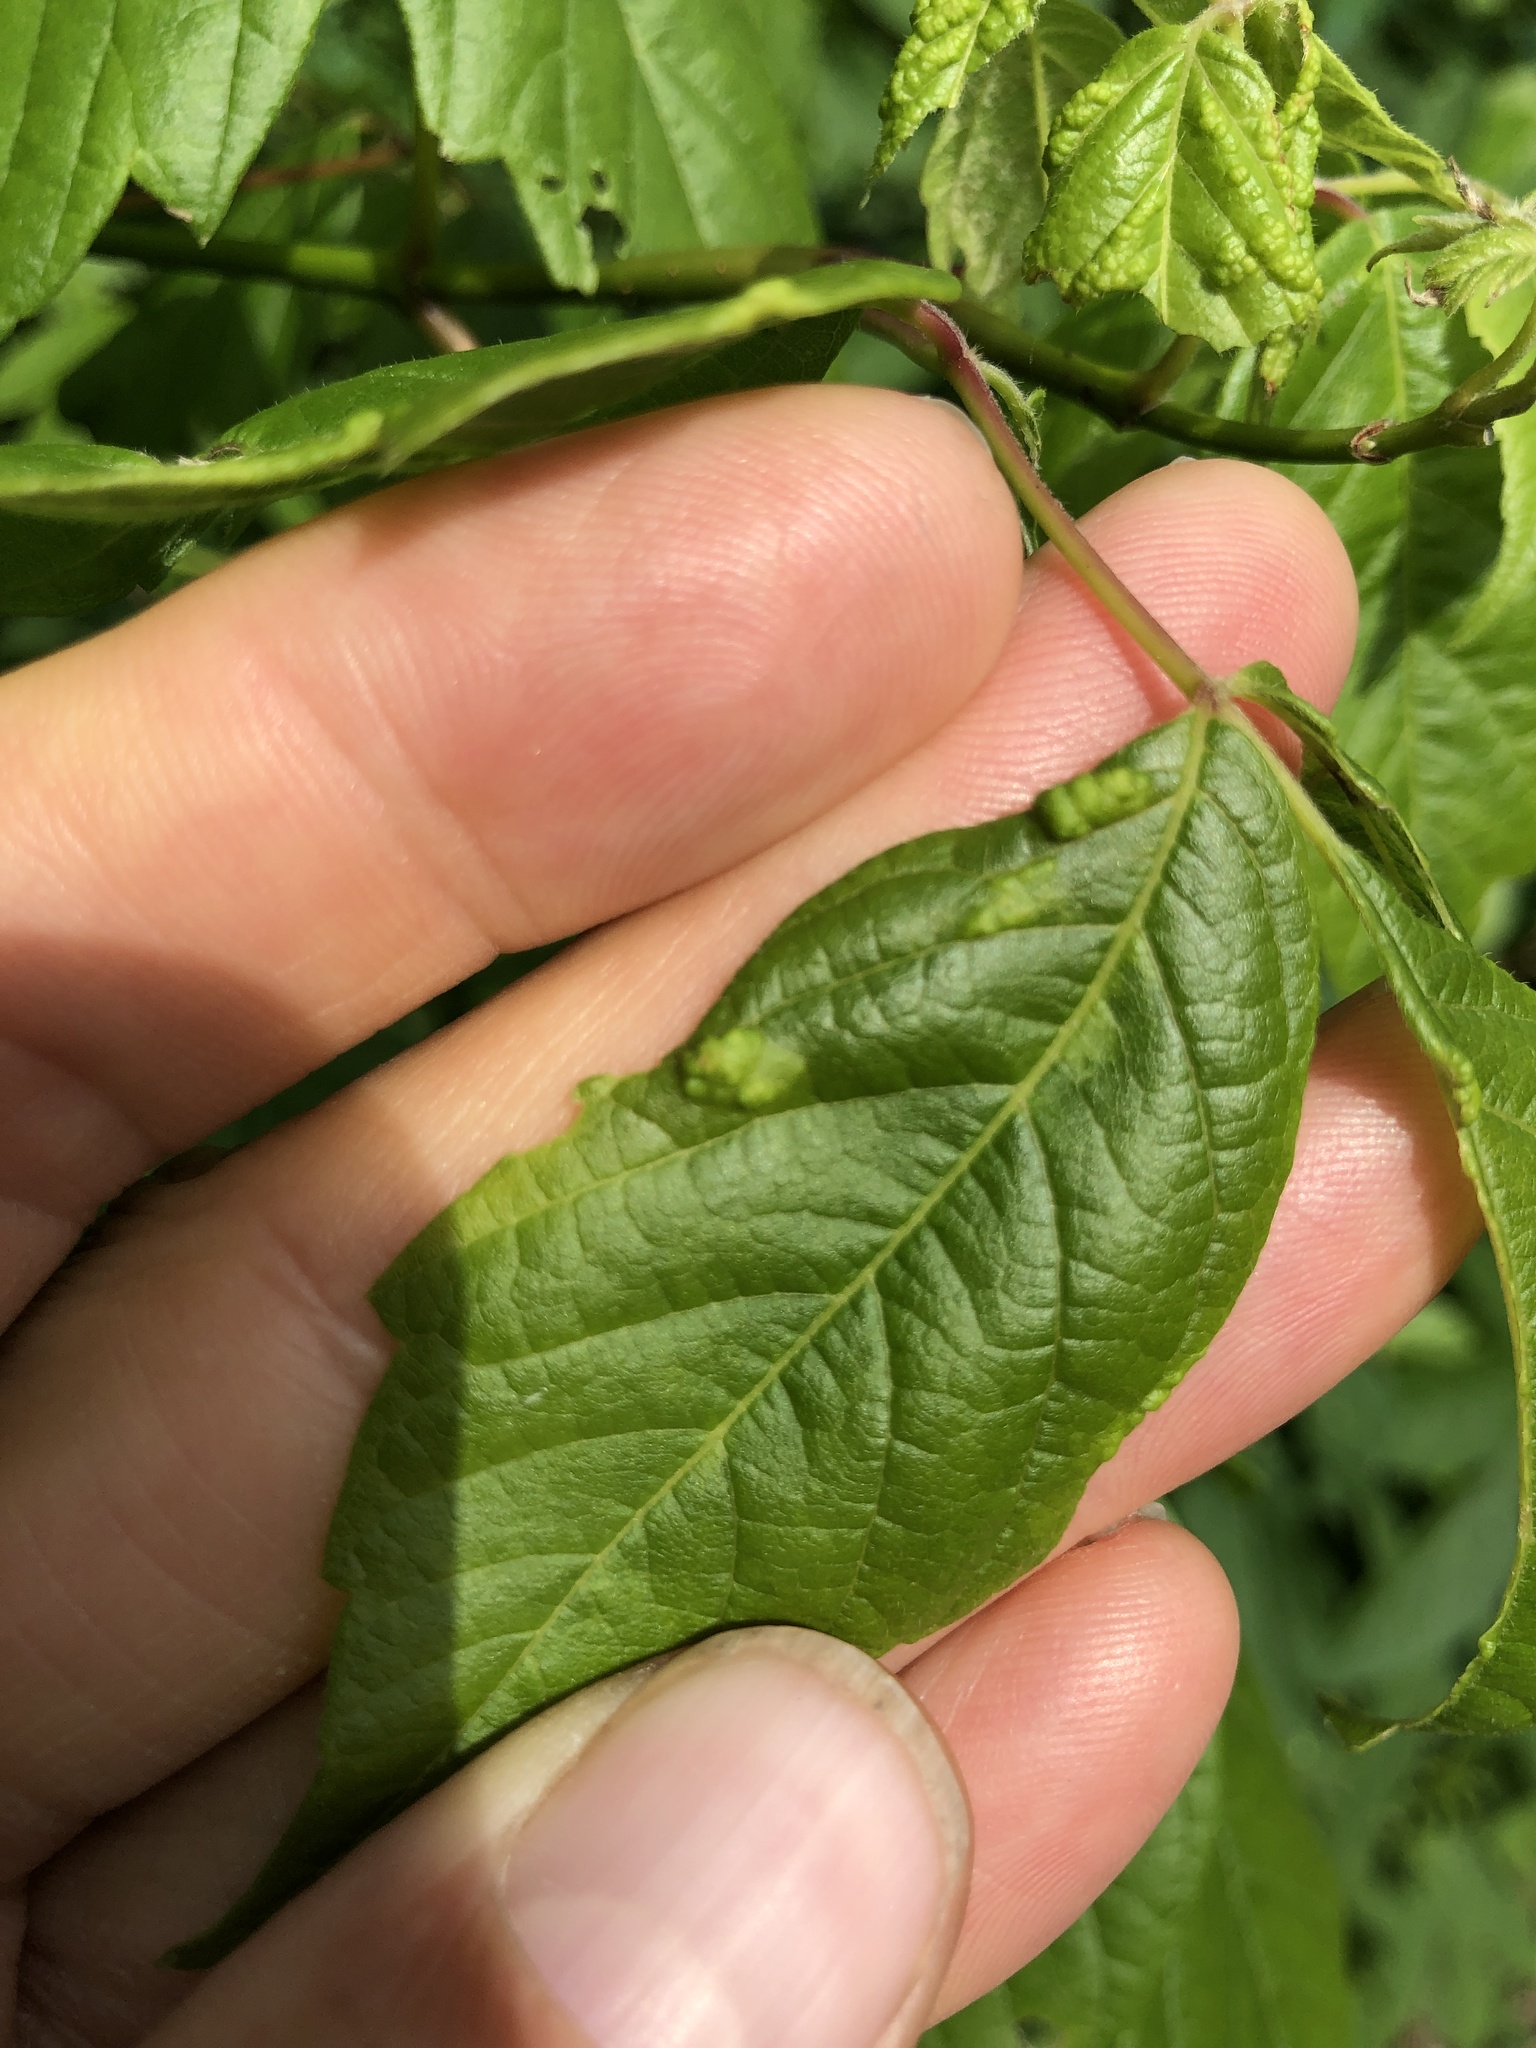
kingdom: Animalia
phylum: Arthropoda
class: Arachnida
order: Trombidiformes
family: Eriophyidae
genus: Aceria
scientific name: Aceria
